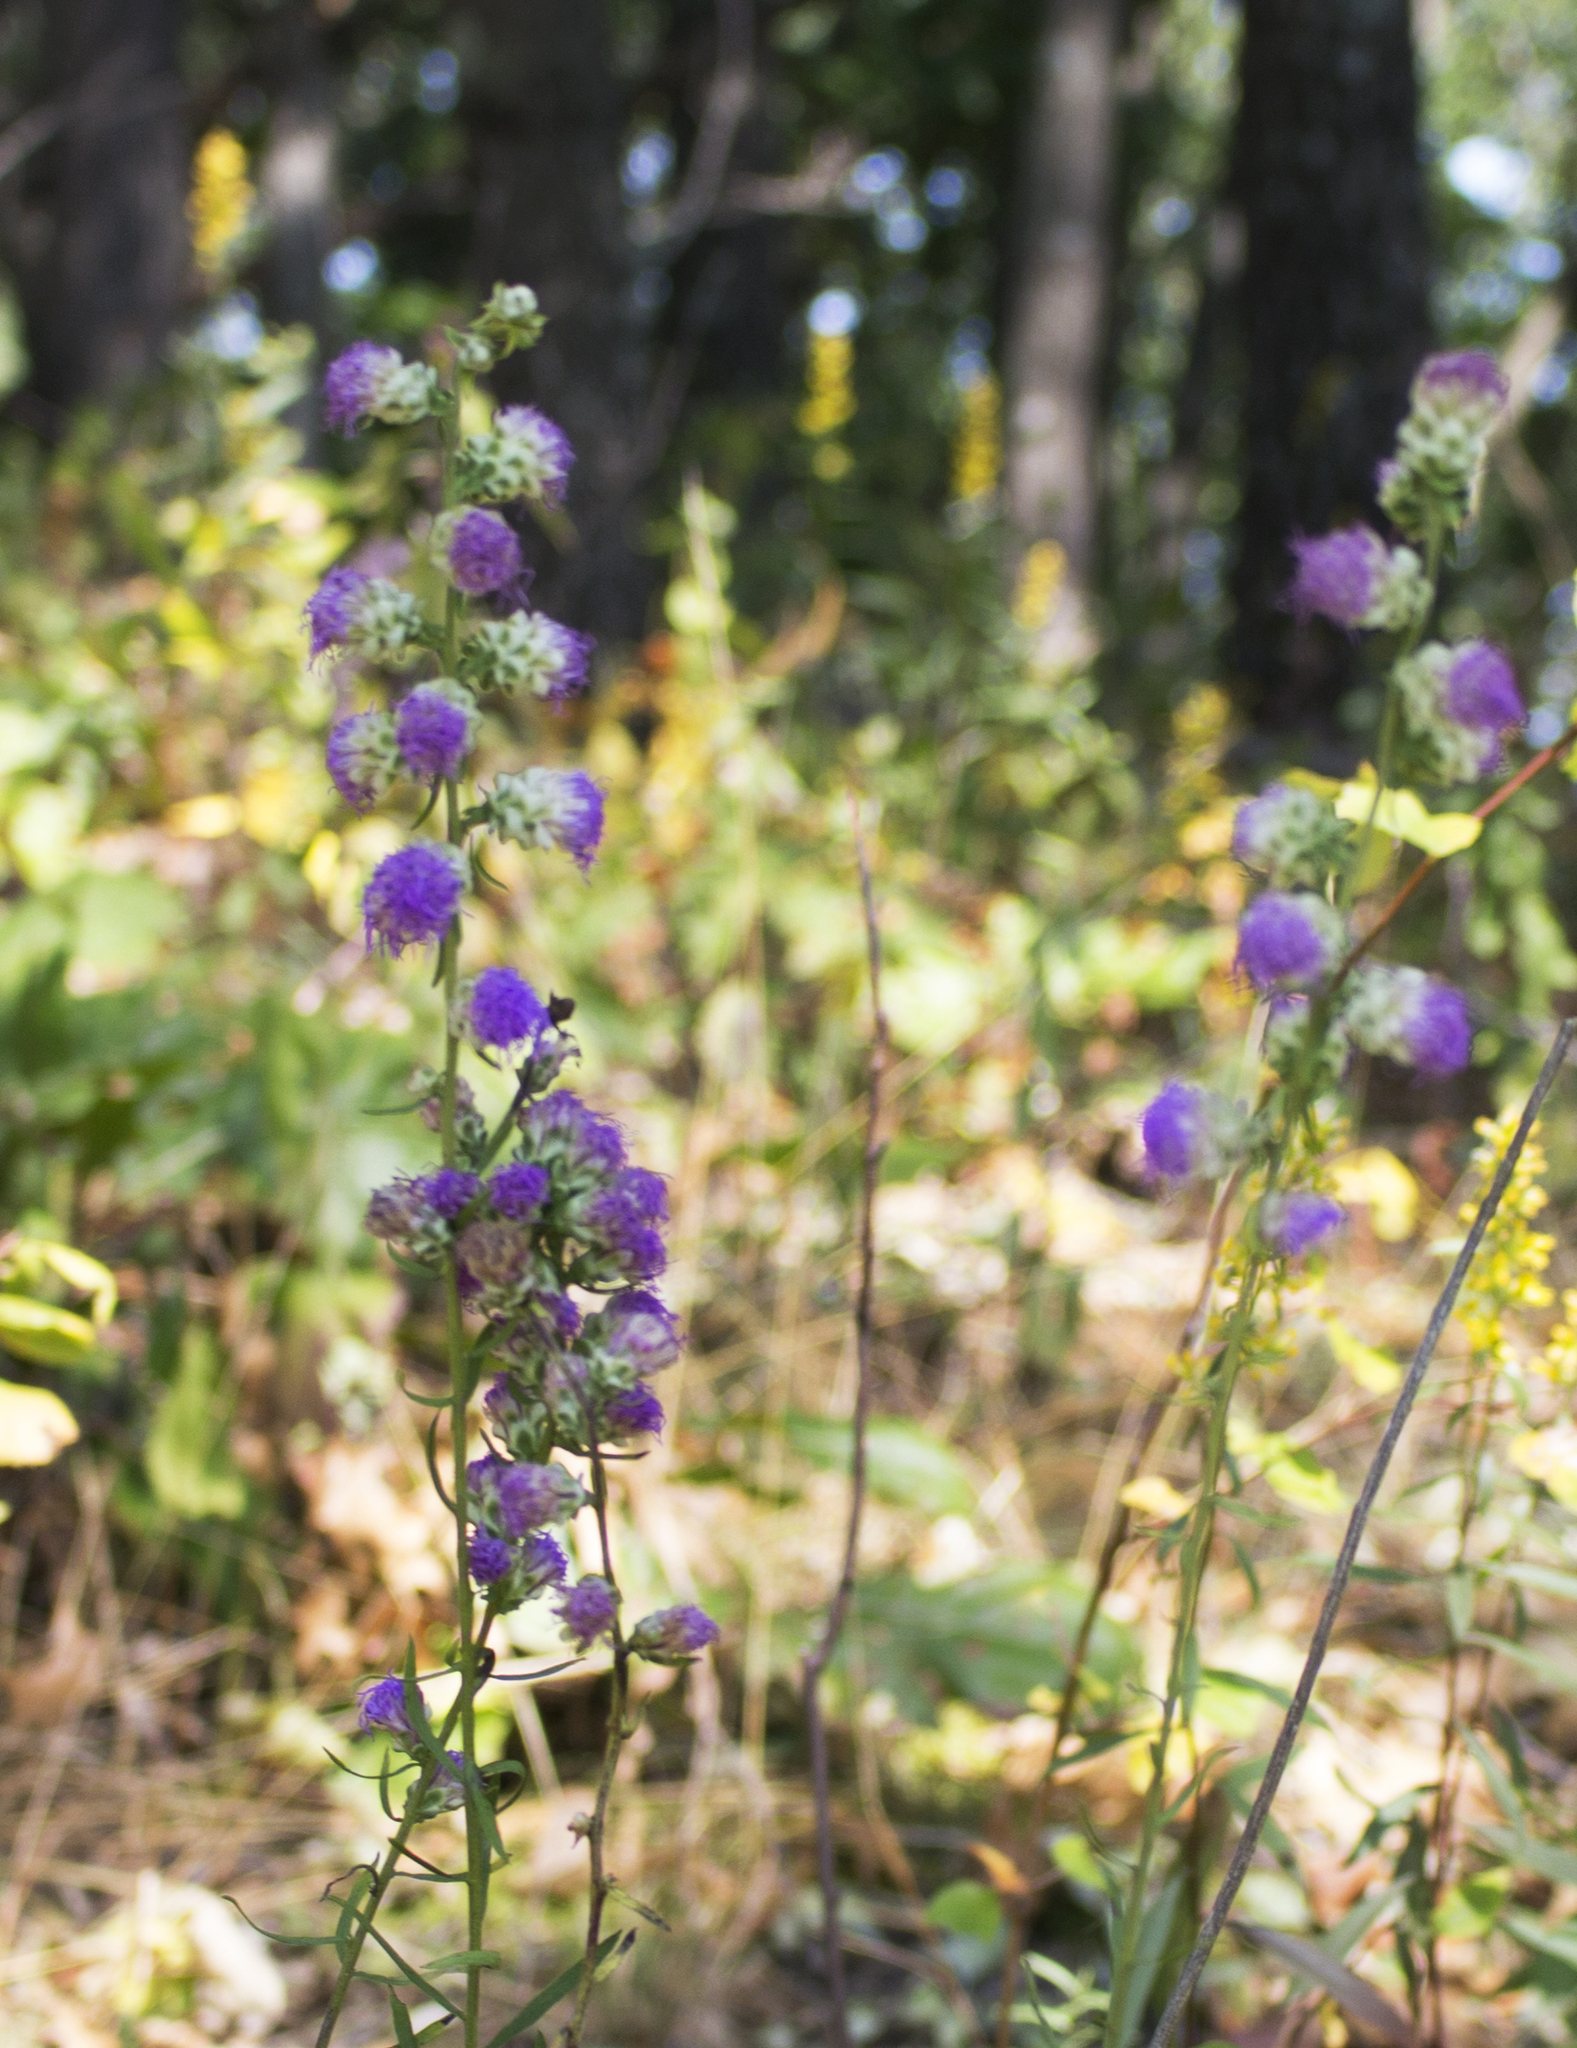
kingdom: Plantae
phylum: Tracheophyta
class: Magnoliopsida
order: Asterales
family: Asteraceae
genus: Liatris
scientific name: Liatris aspera
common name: Lacerate blazing-star
